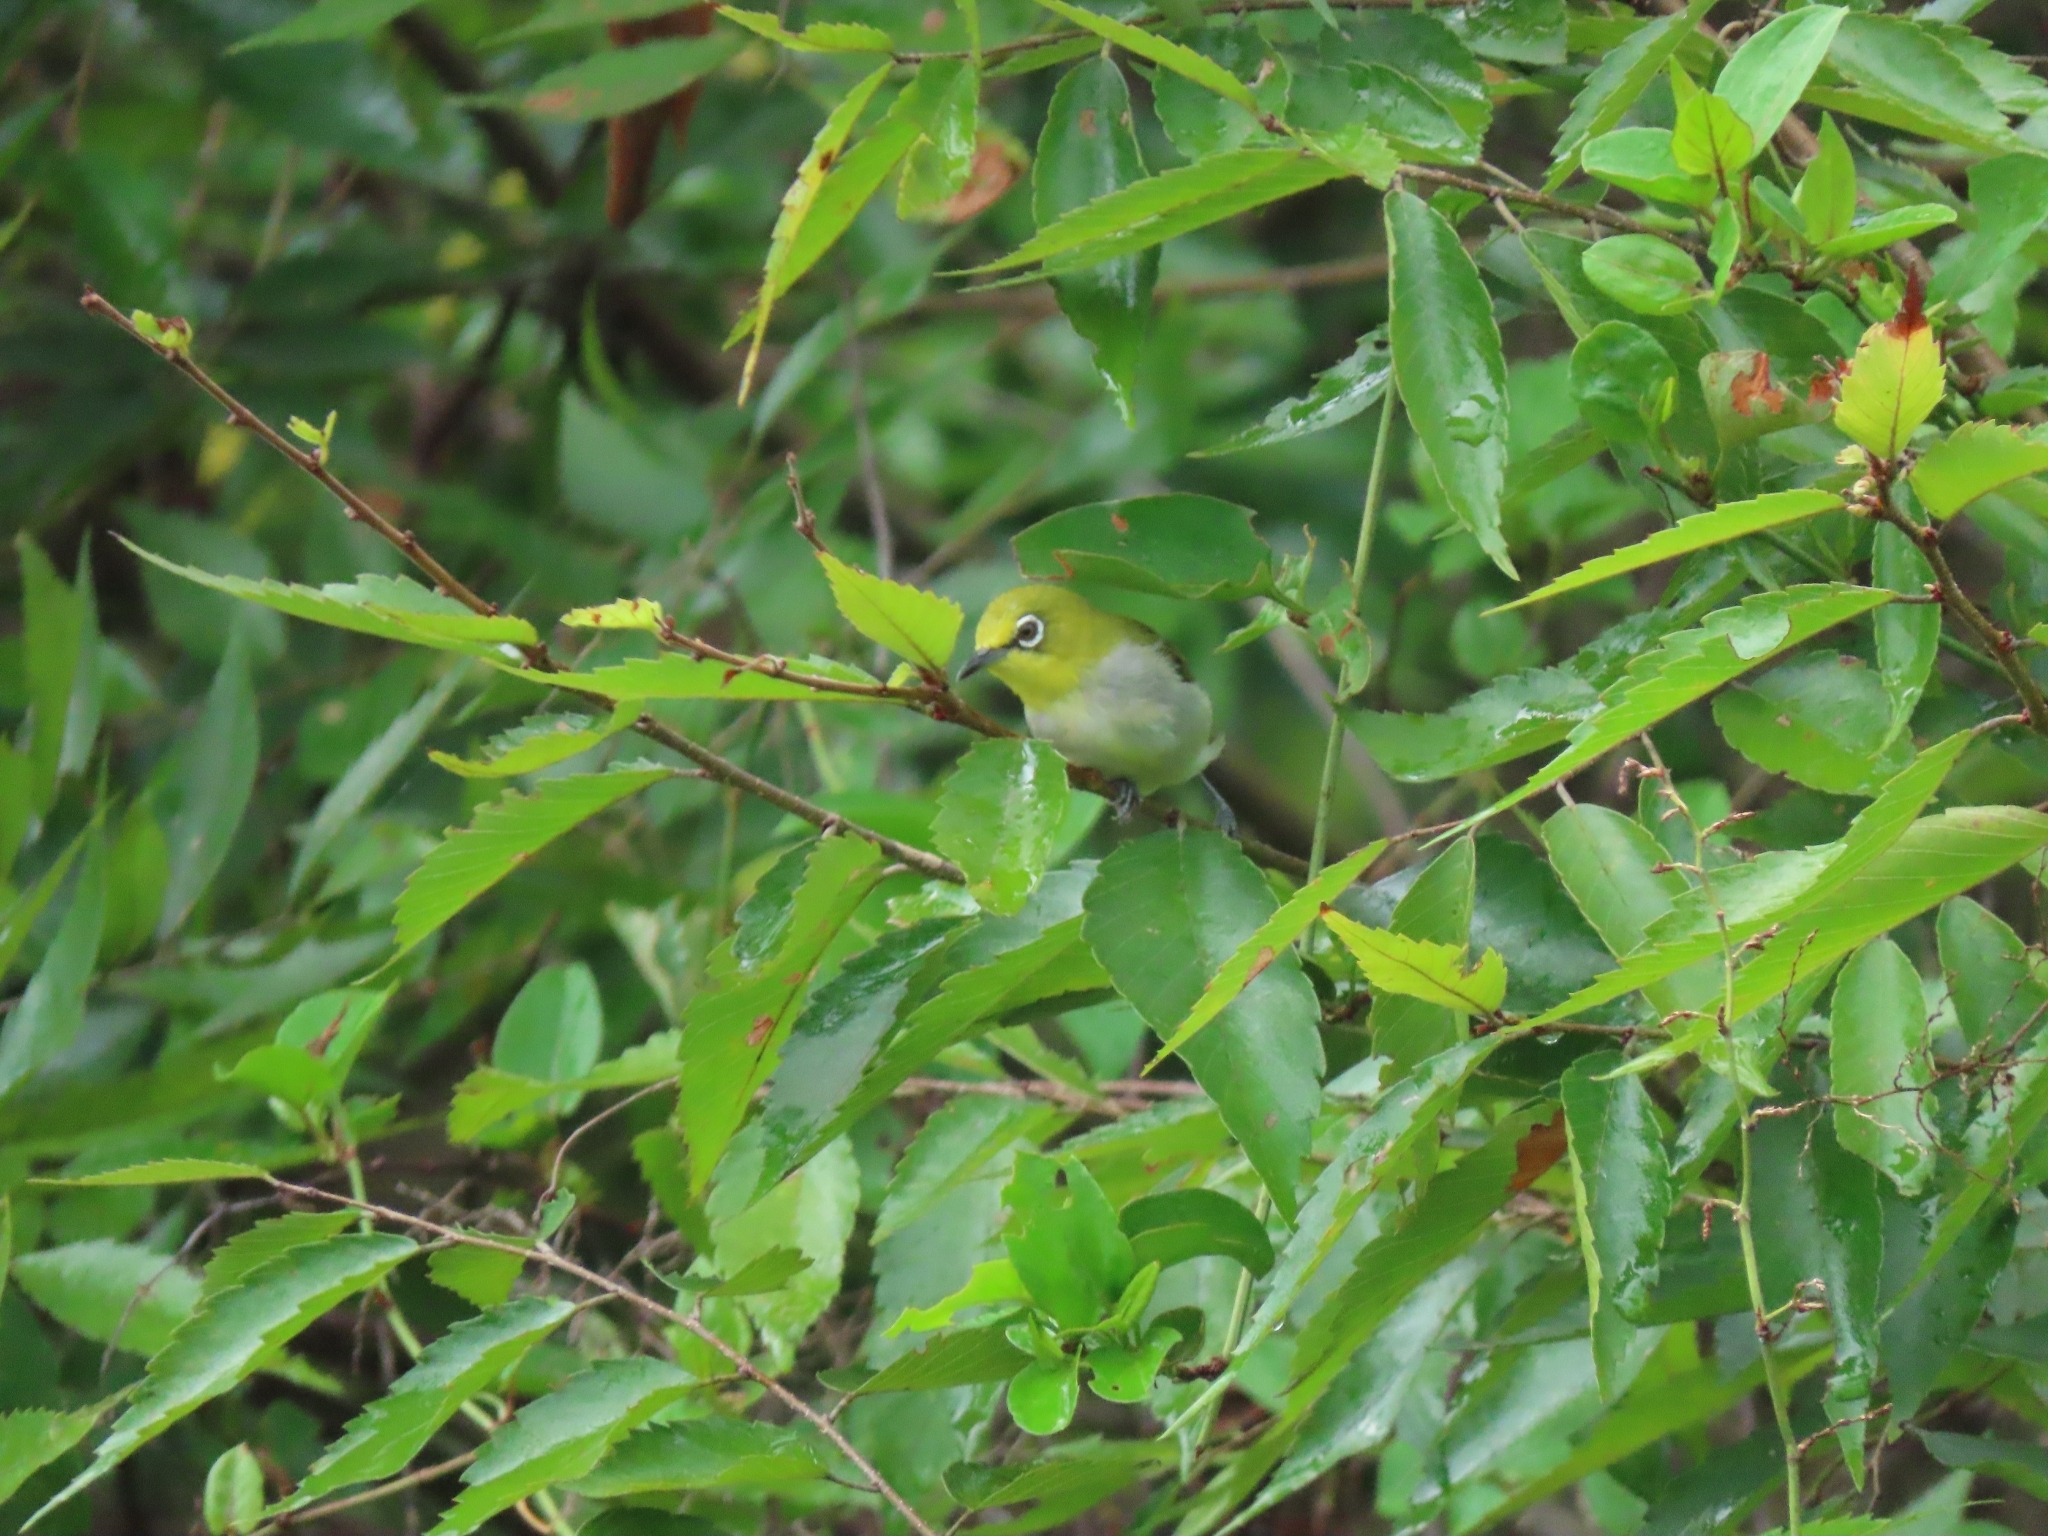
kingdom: Animalia
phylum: Chordata
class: Aves
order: Passeriformes
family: Zosteropidae
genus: Zosterops
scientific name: Zosterops simplex
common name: Swinhoe's white-eye
